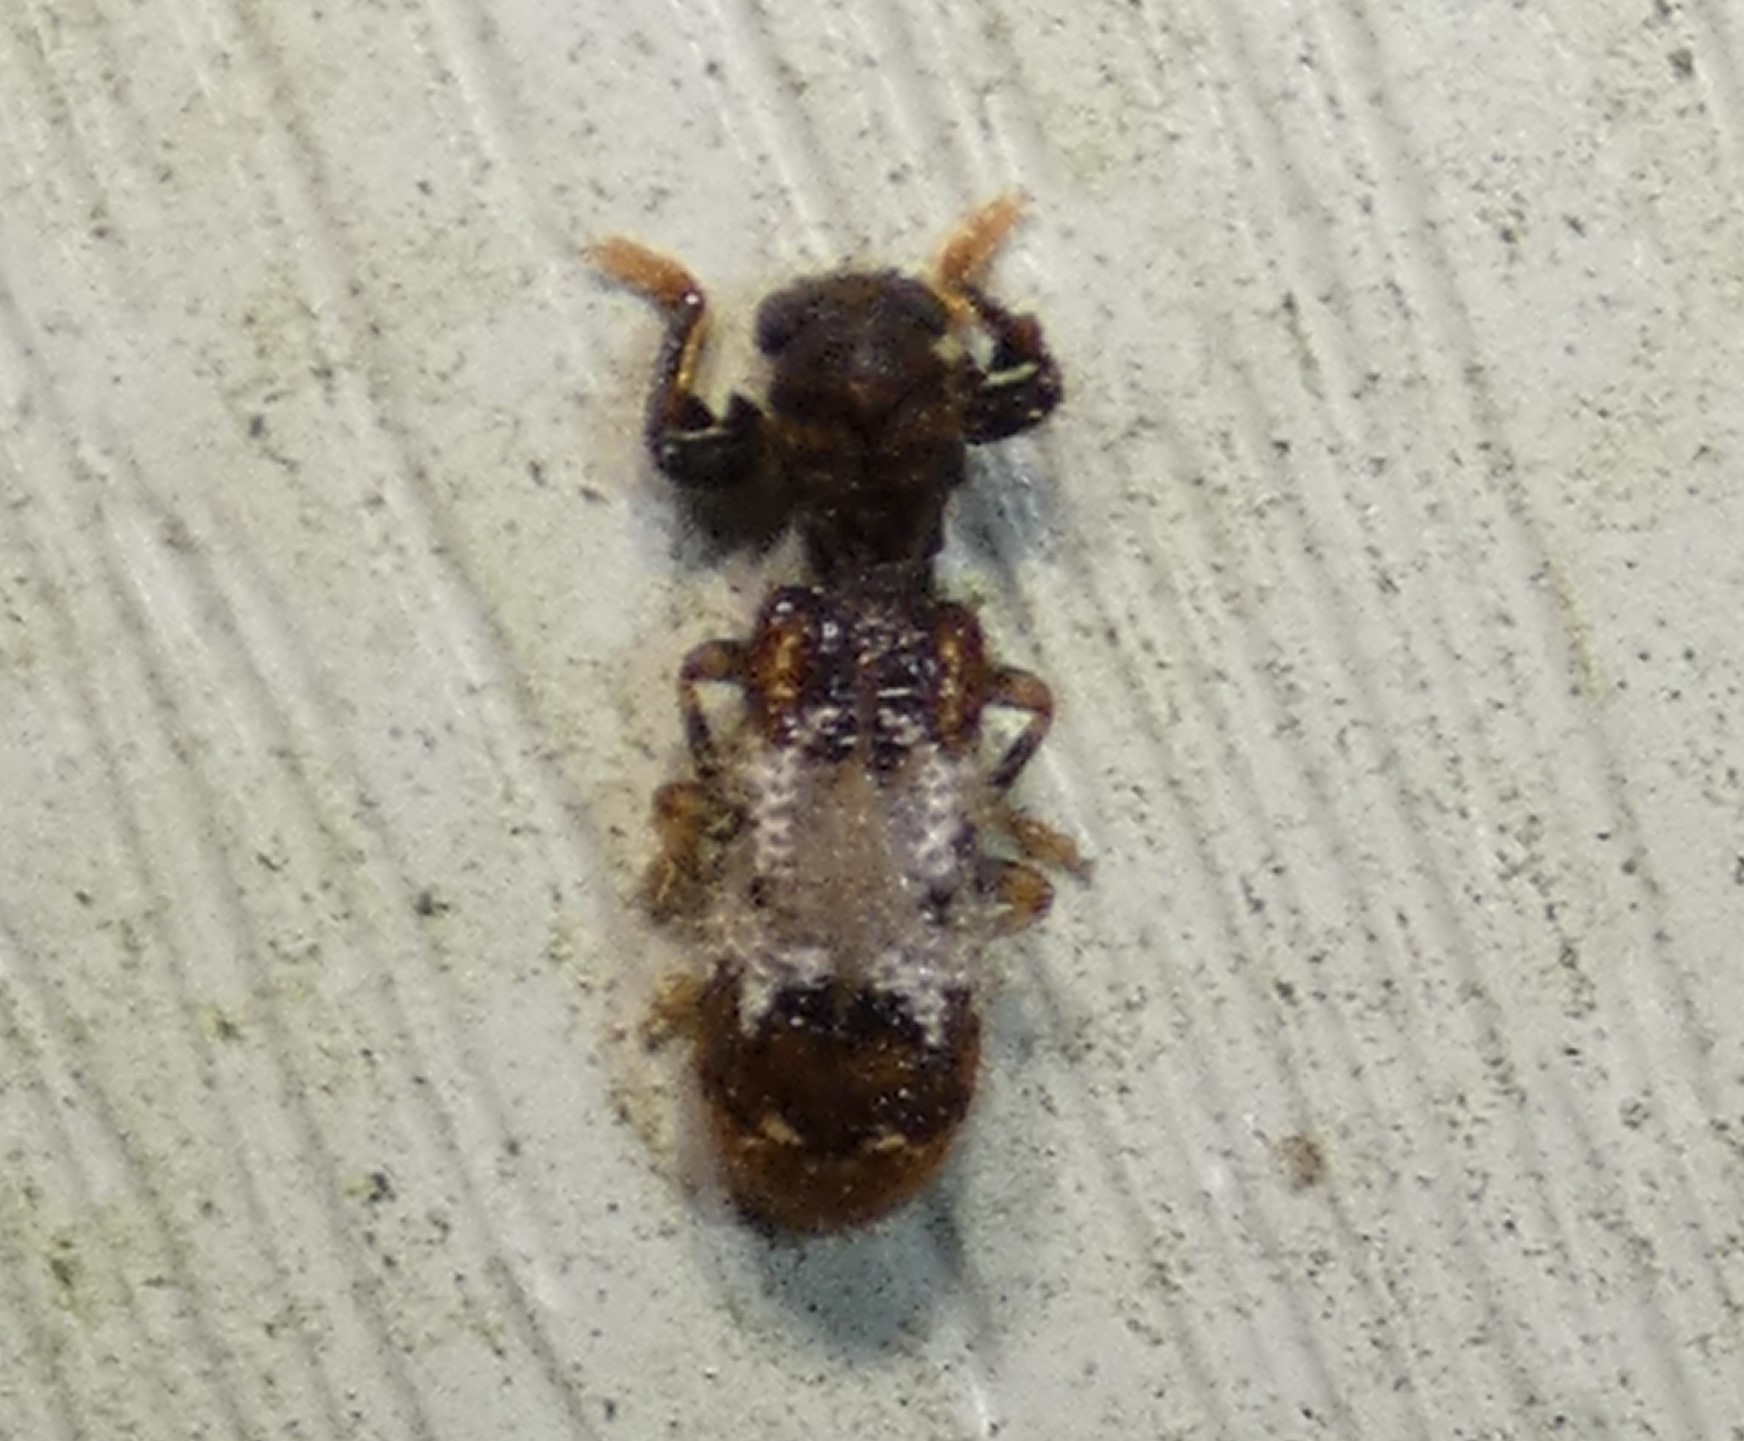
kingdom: Animalia
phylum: Arthropoda
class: Insecta
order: Coleoptera
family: Cleridae
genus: Pelonium
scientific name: Pelonium leucophaeum
